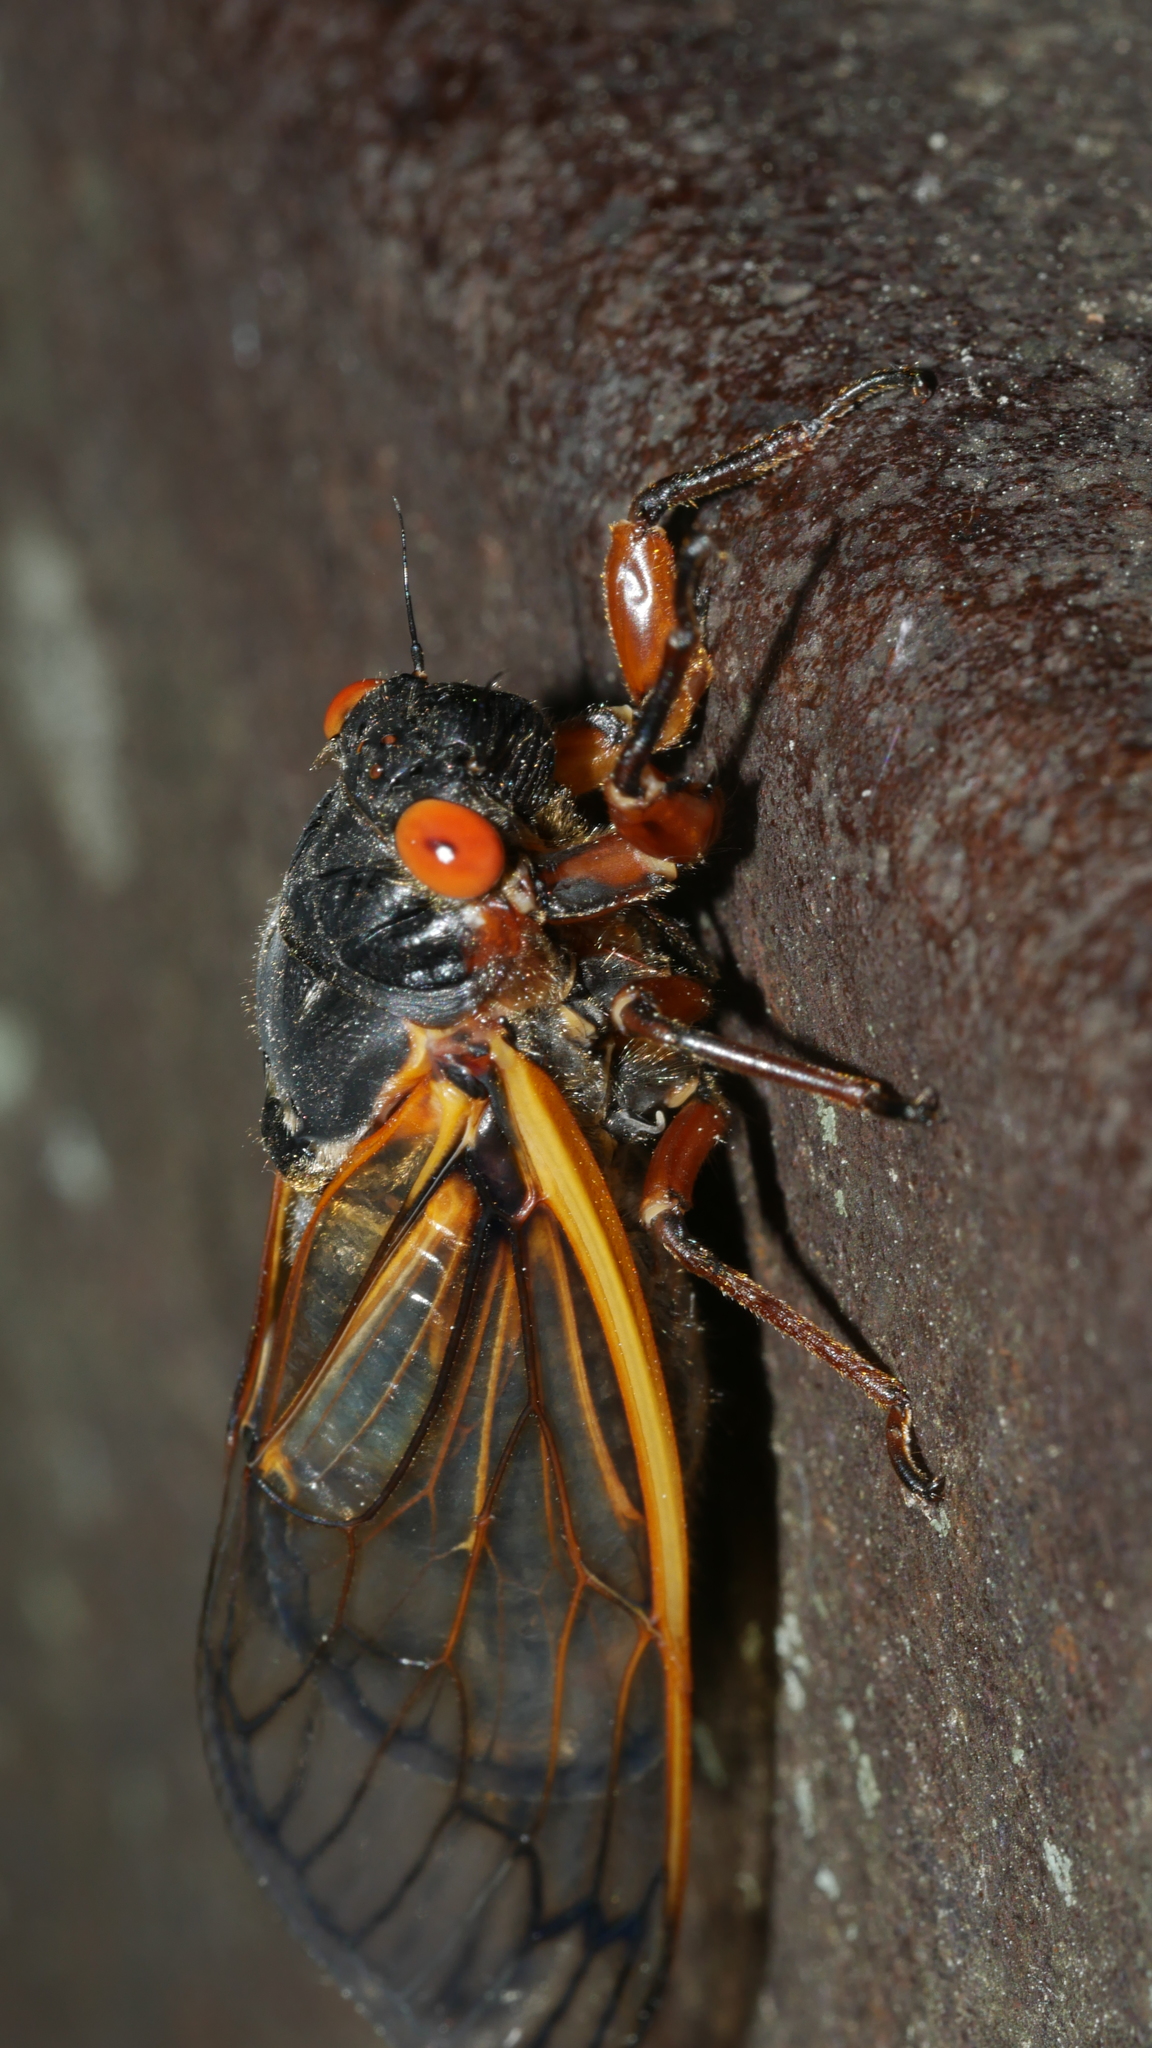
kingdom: Animalia
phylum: Arthropoda
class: Insecta
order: Hemiptera
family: Cicadidae
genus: Magicicada
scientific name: Magicicada septendecim
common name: Periodical cicada
